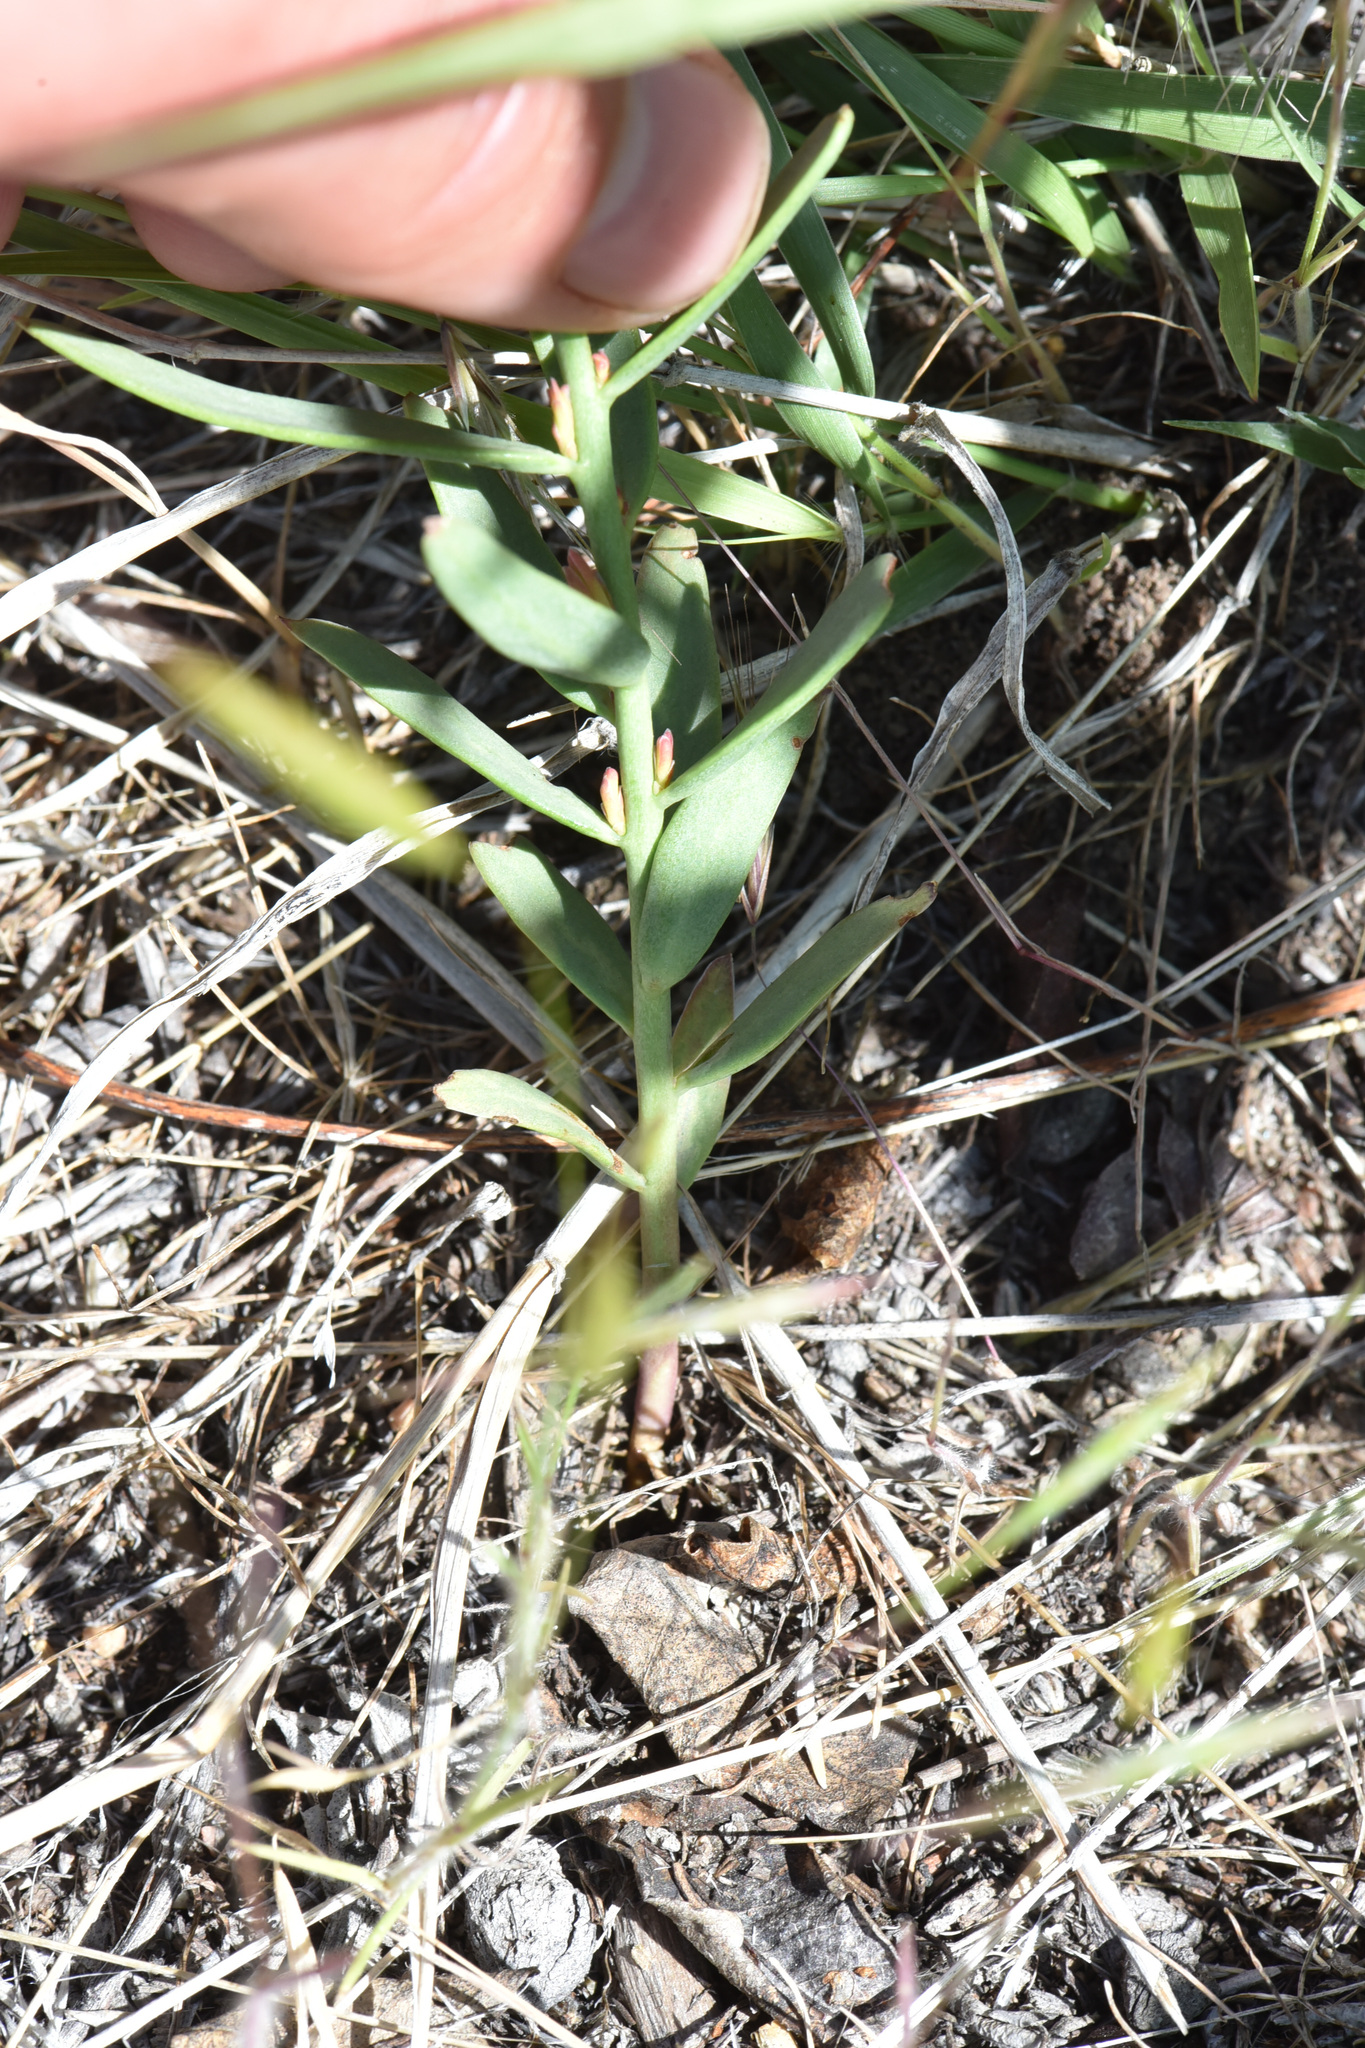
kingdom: Plantae
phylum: Tracheophyta
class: Magnoliopsida
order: Santalales
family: Comandraceae
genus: Comandra
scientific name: Comandra umbellata
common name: Bastard toadflax
